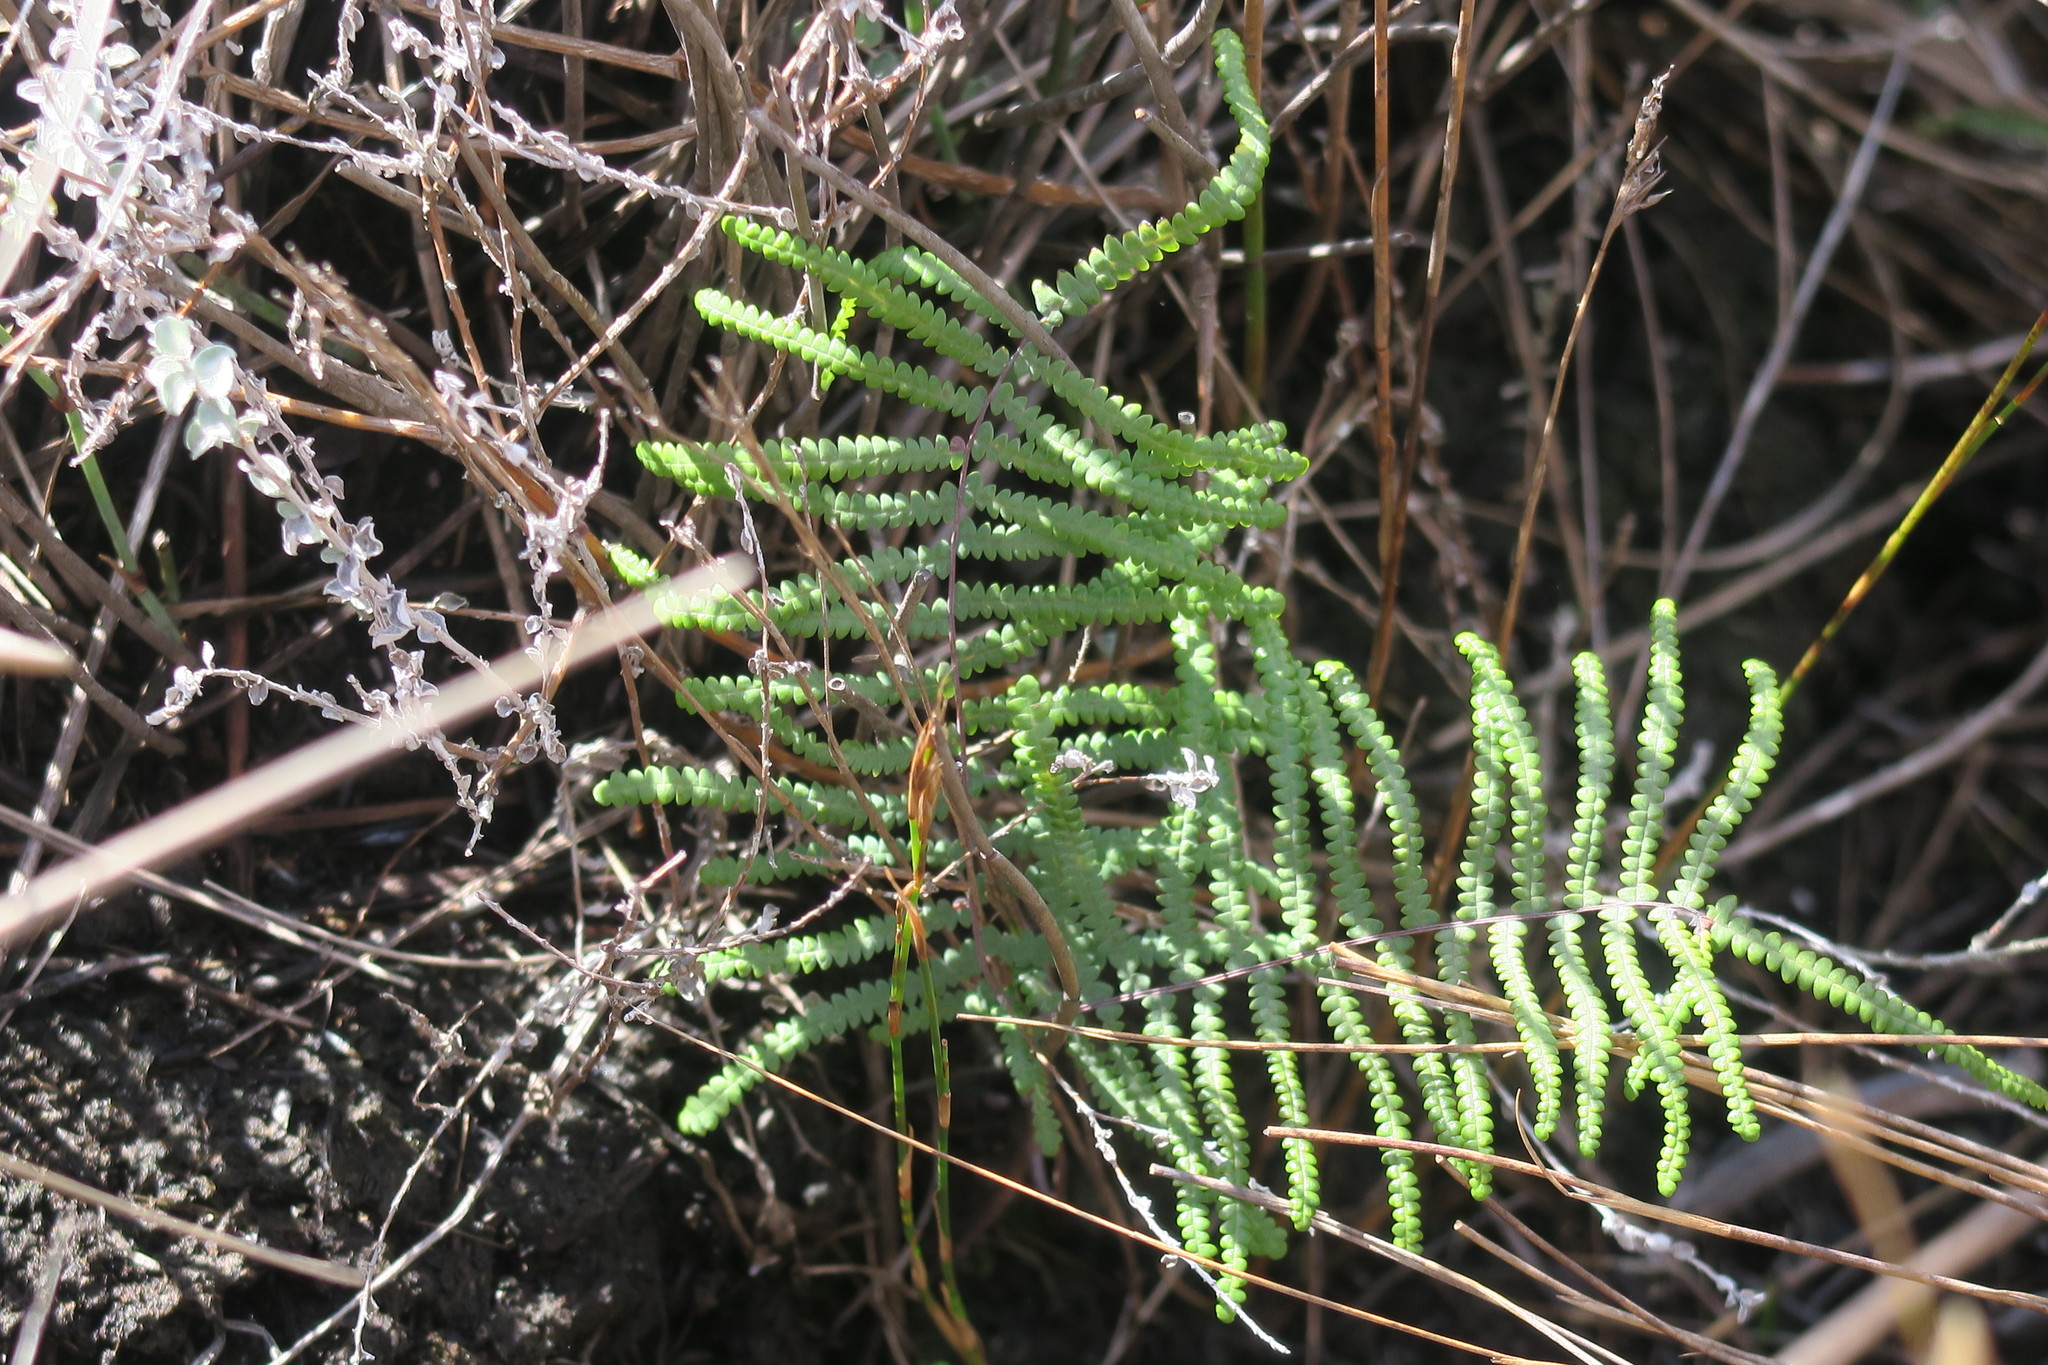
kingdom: Plantae
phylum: Tracheophyta
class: Polypodiopsida
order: Gleicheniales
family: Gleicheniaceae
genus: Gleichenia
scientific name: Gleichenia polypodioides
